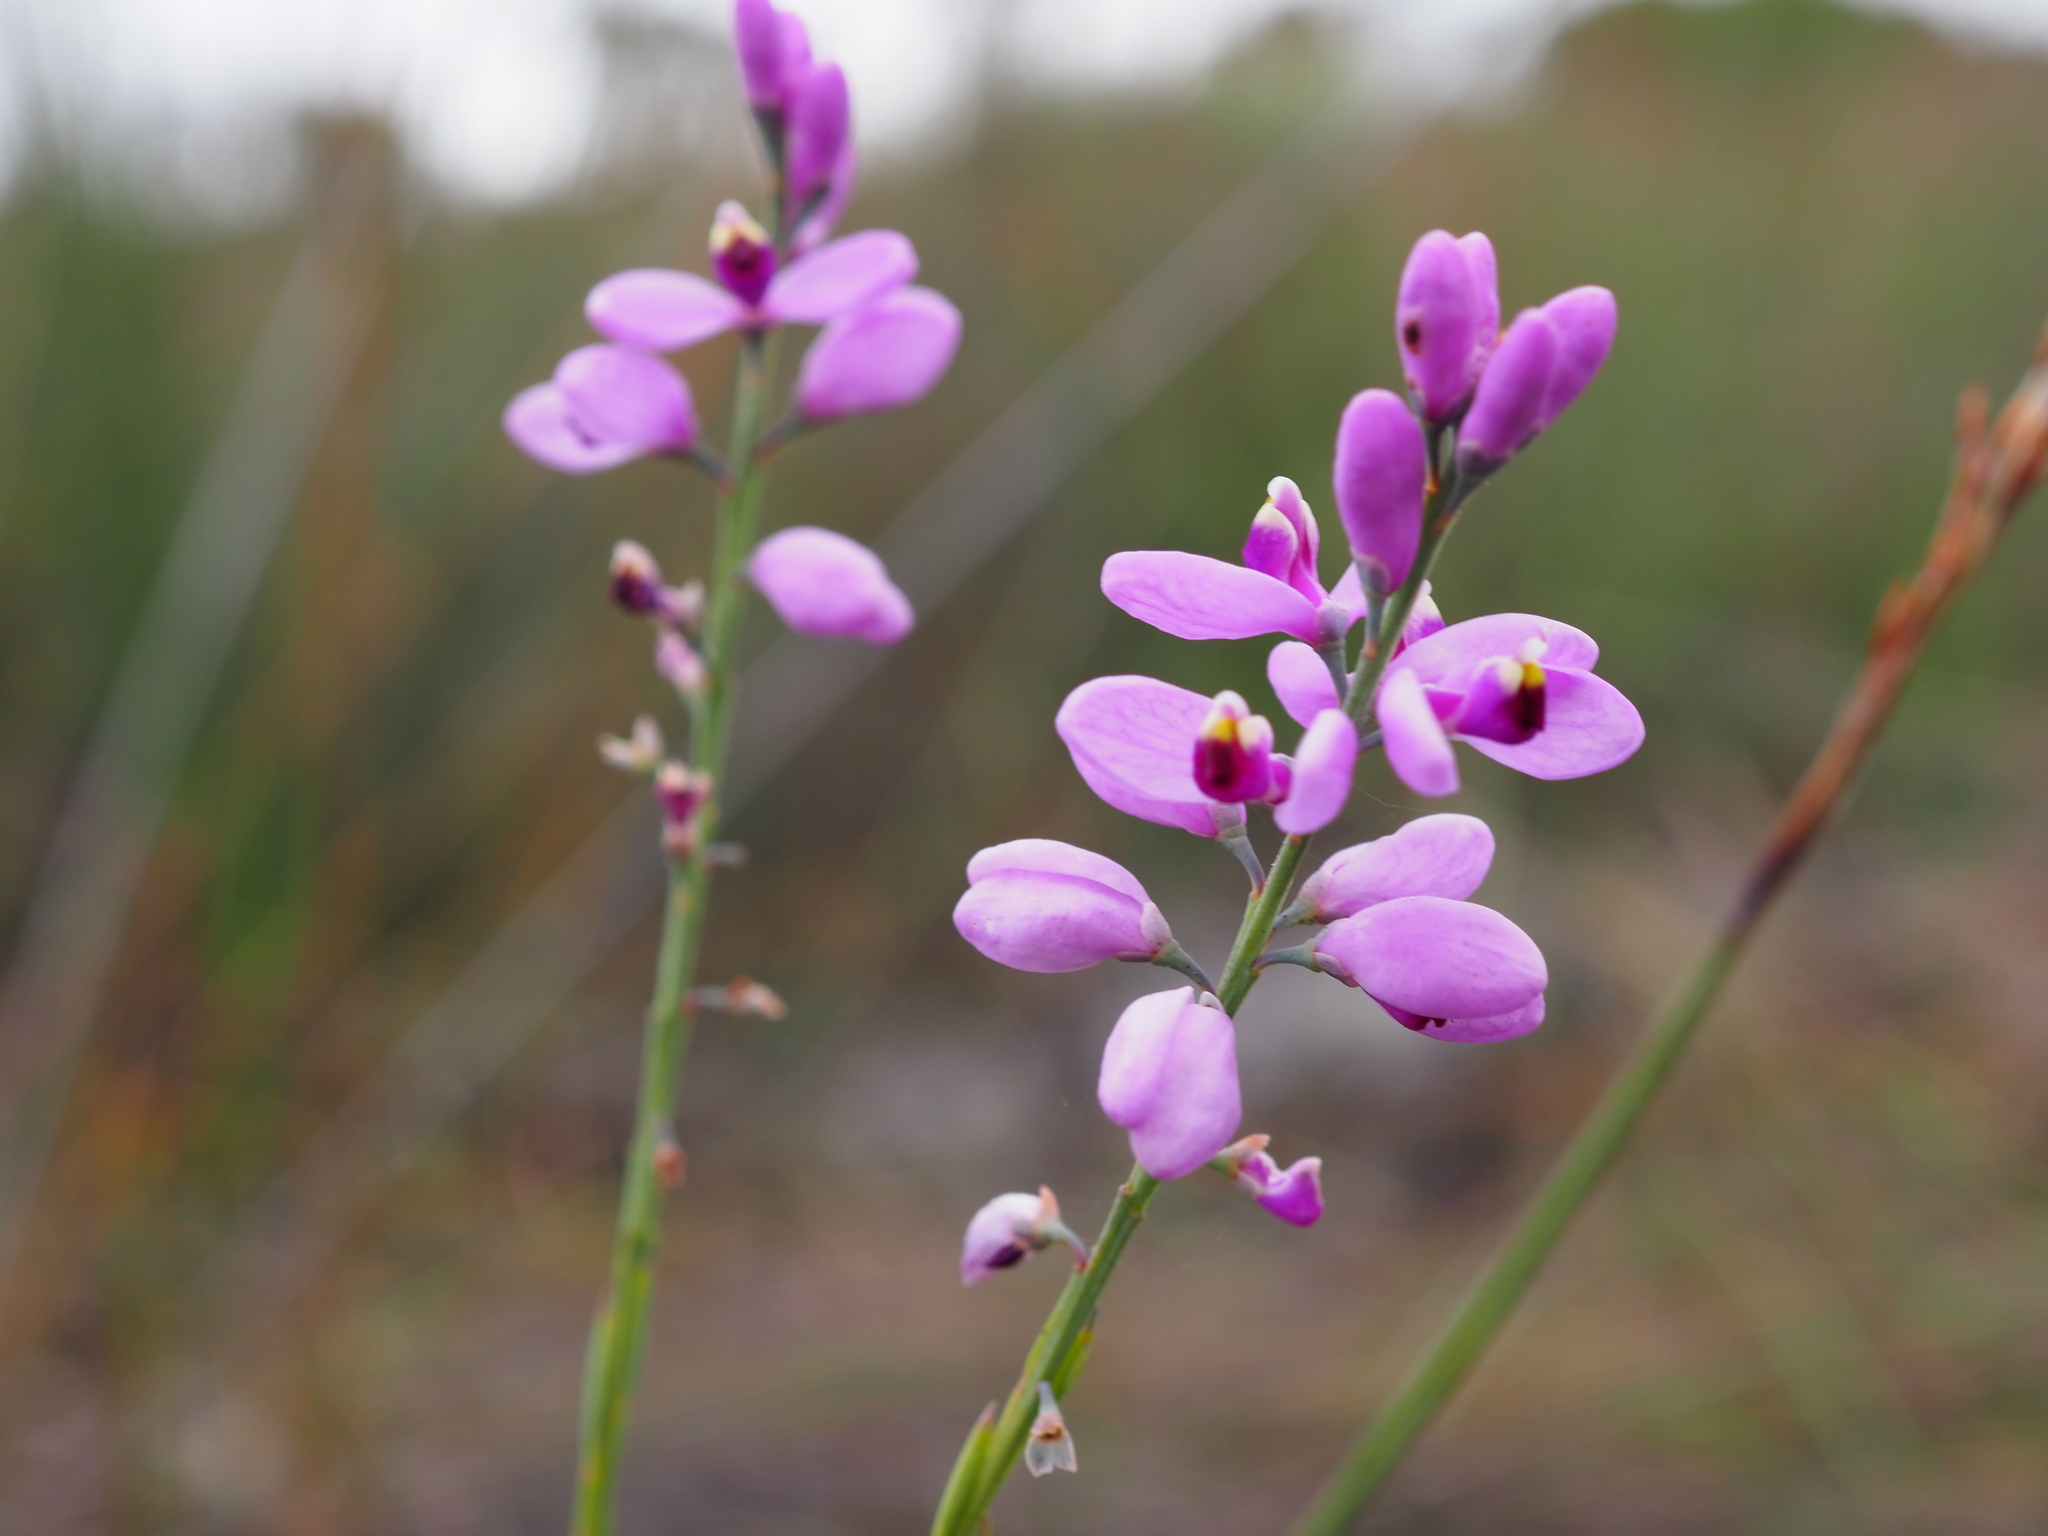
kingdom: Plantae
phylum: Tracheophyta
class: Magnoliopsida
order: Fabales
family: Polygalaceae
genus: Comesperma
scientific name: Comesperma virgatum
